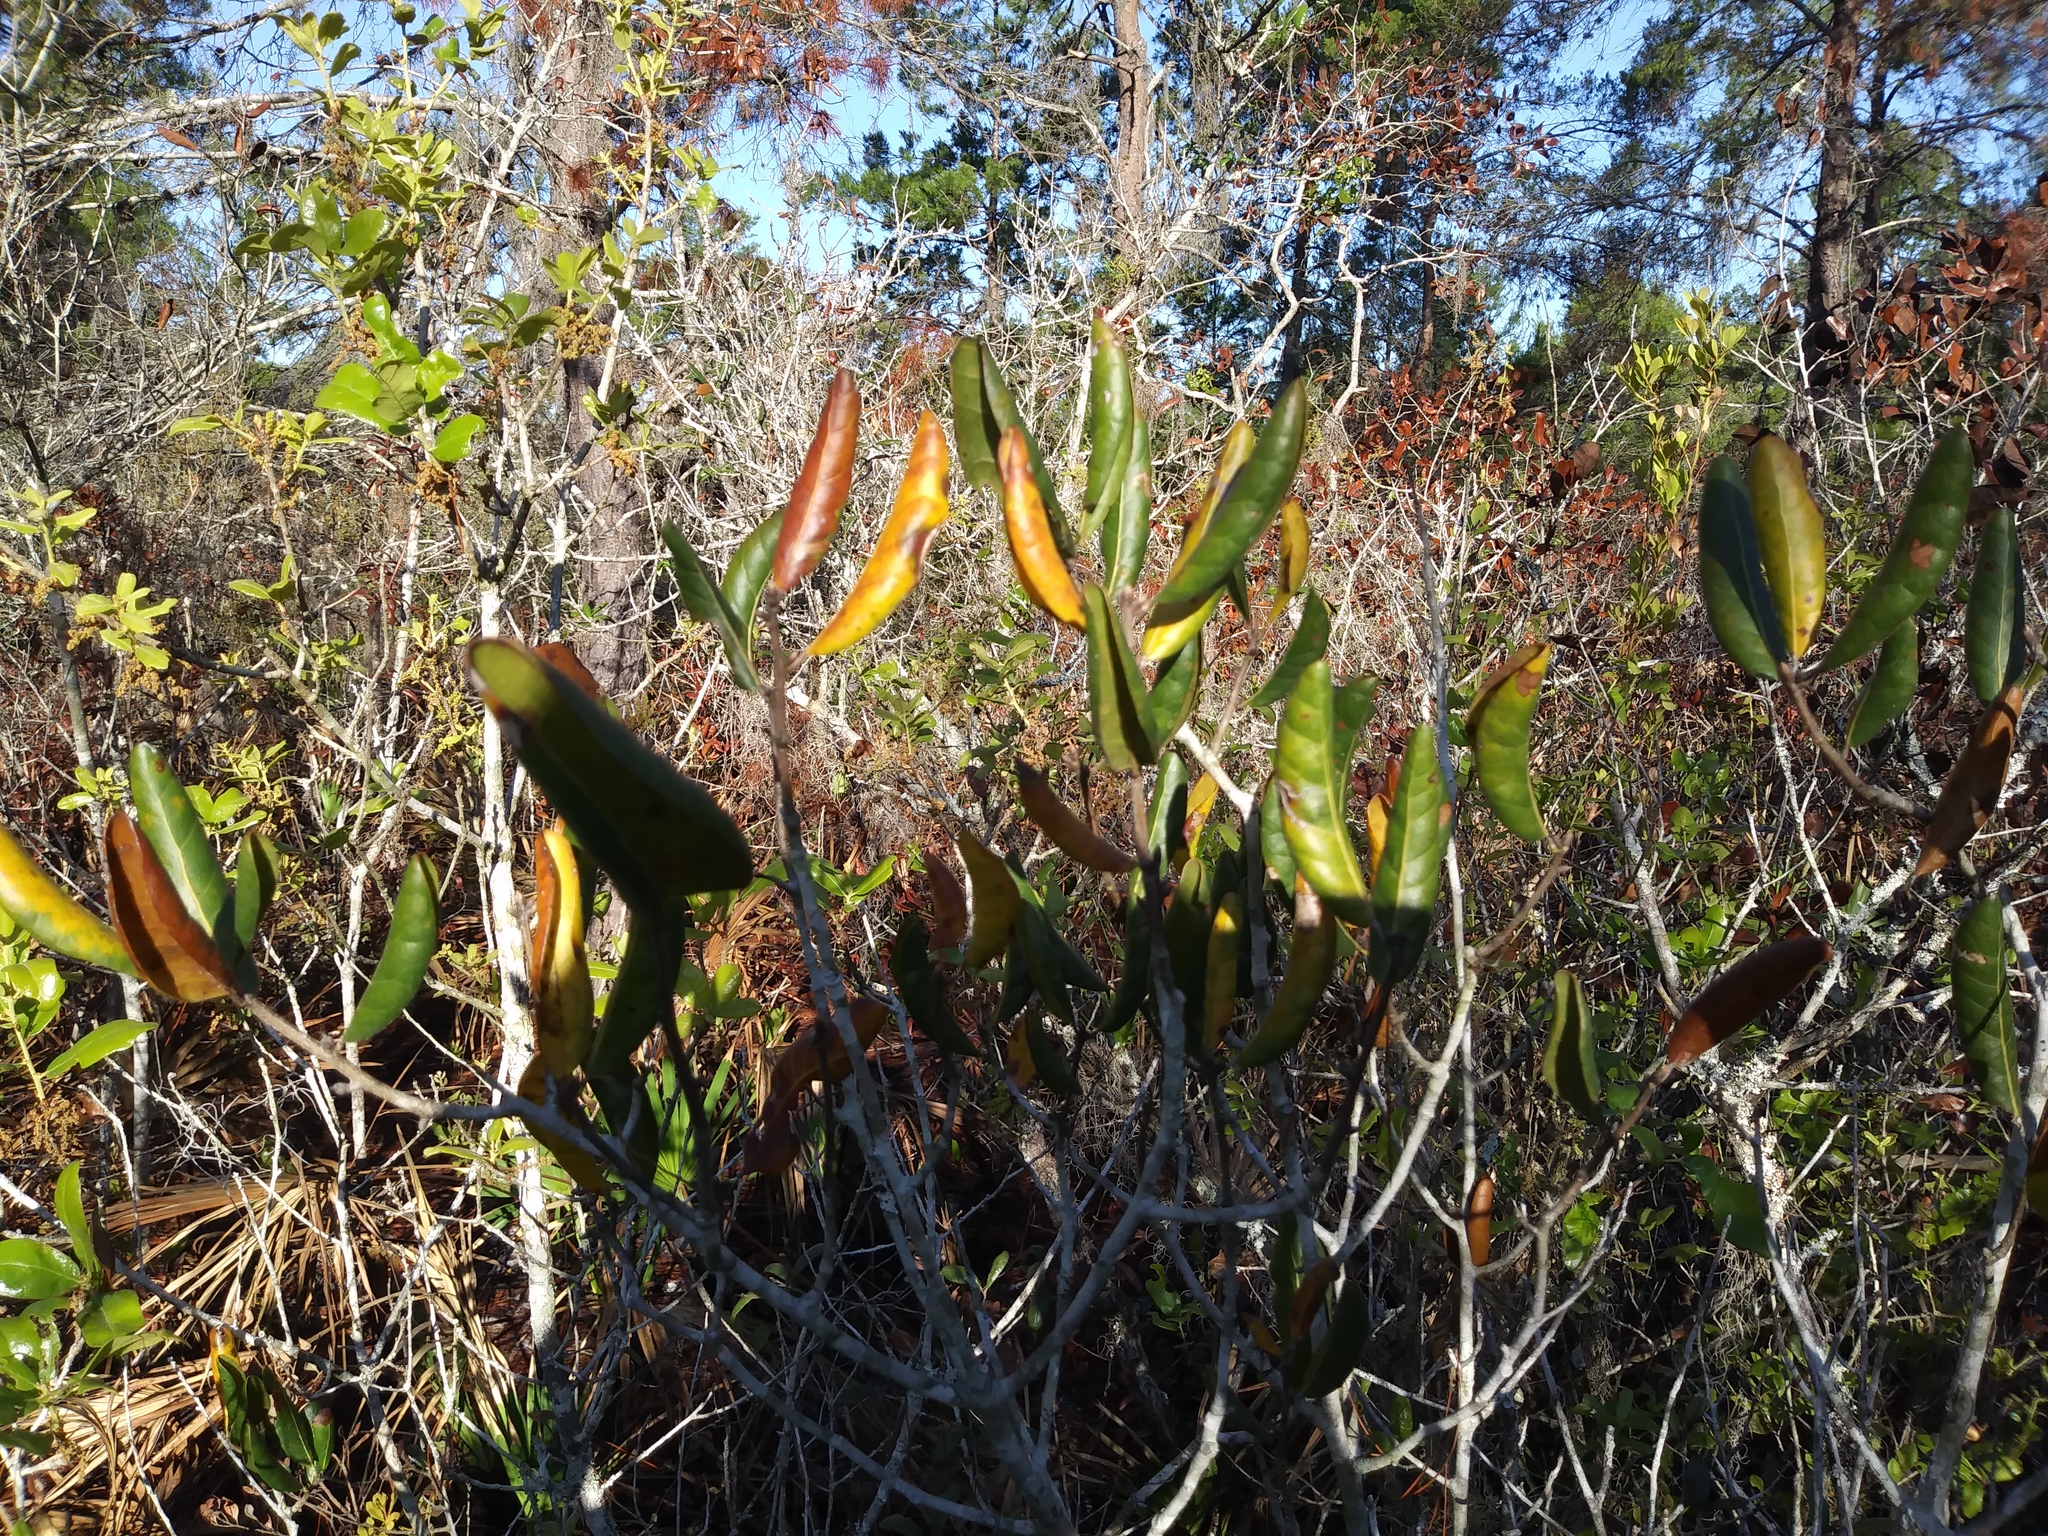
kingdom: Plantae
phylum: Tracheophyta
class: Magnoliopsida
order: Fagales
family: Fagaceae
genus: Quercus
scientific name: Quercus inopina
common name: Sandhill oak
